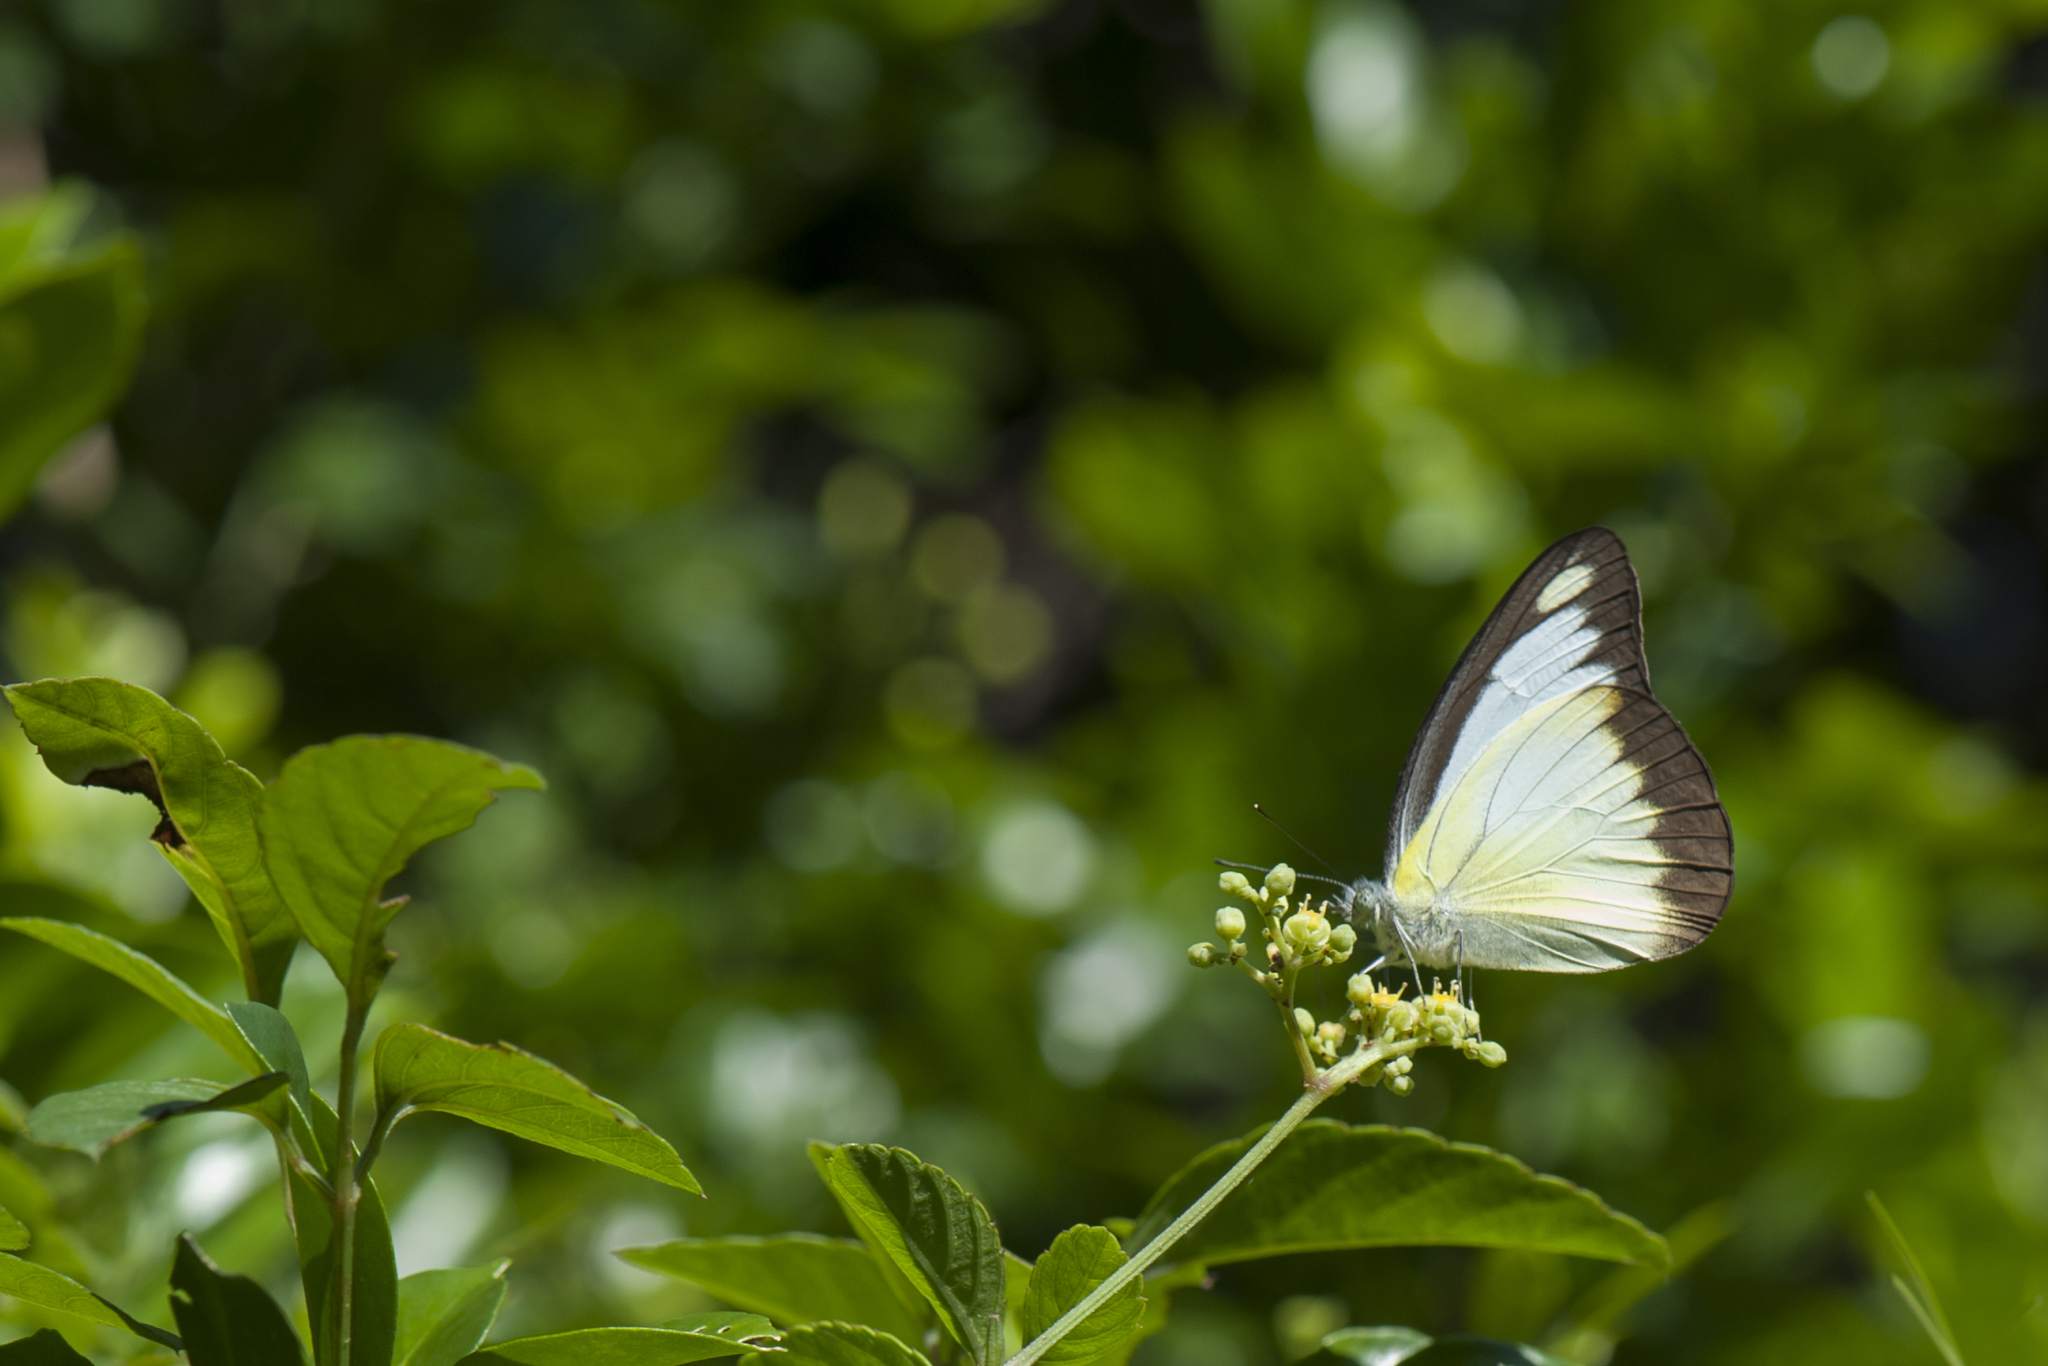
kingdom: Animalia
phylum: Arthropoda
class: Insecta
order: Lepidoptera
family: Pieridae
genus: Appias
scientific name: Appias lyncida
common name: Chocolate albatross
